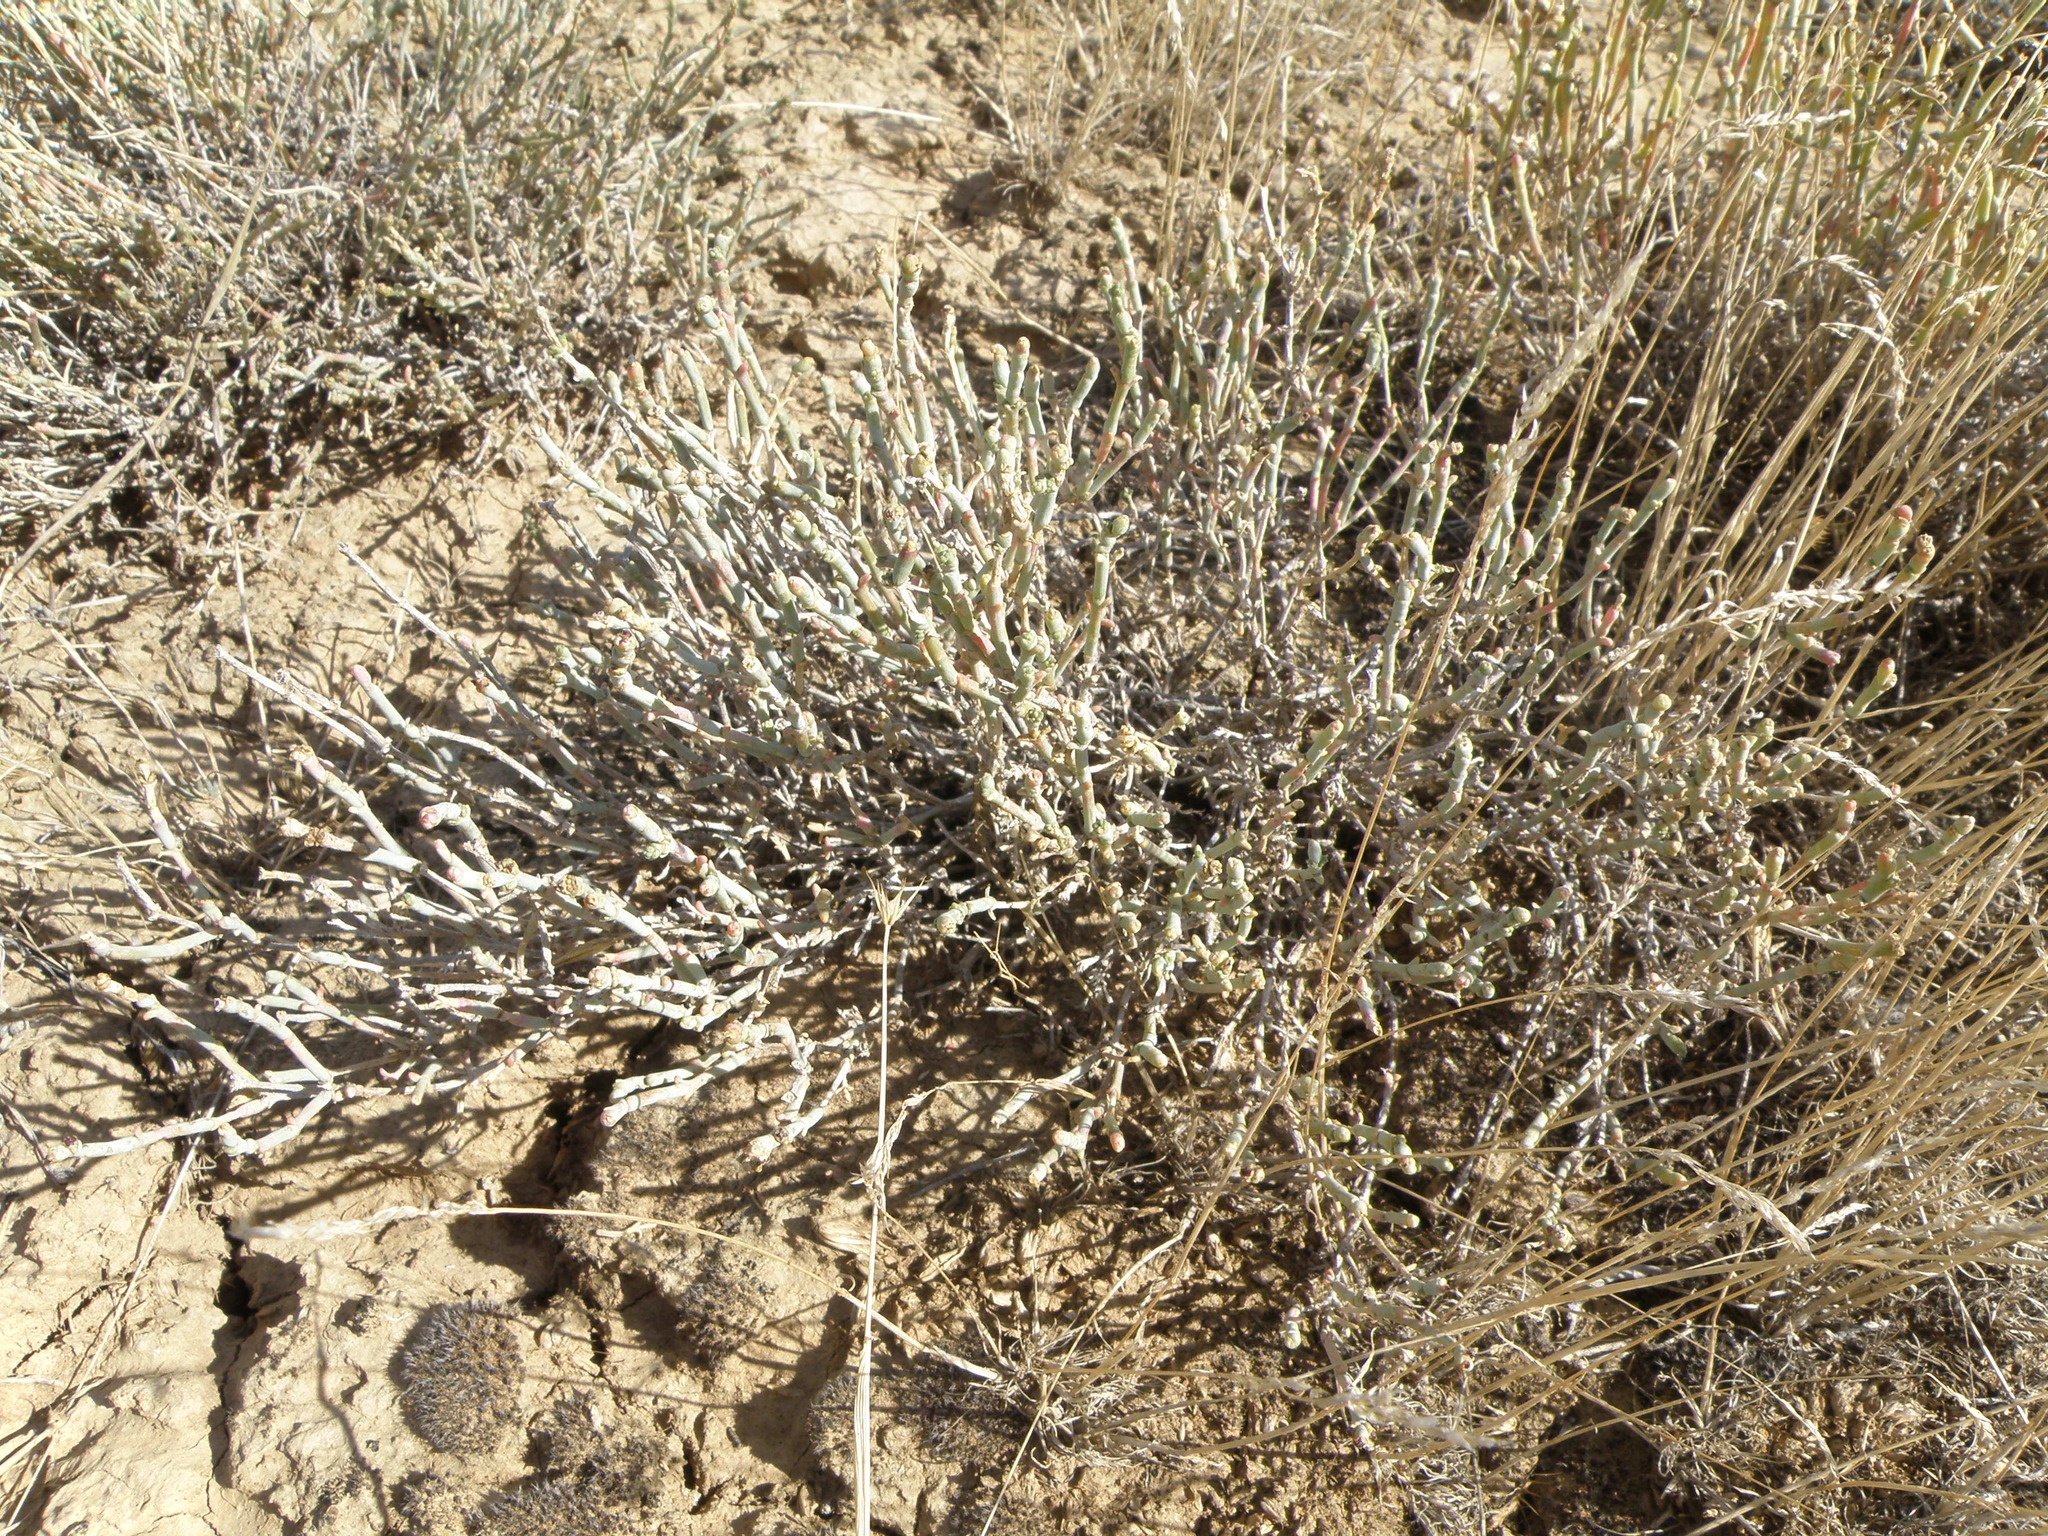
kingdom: Plantae
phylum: Tracheophyta
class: Magnoliopsida
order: Caryophyllales
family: Amaranthaceae
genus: Anabasis
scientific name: Anabasis salsa
